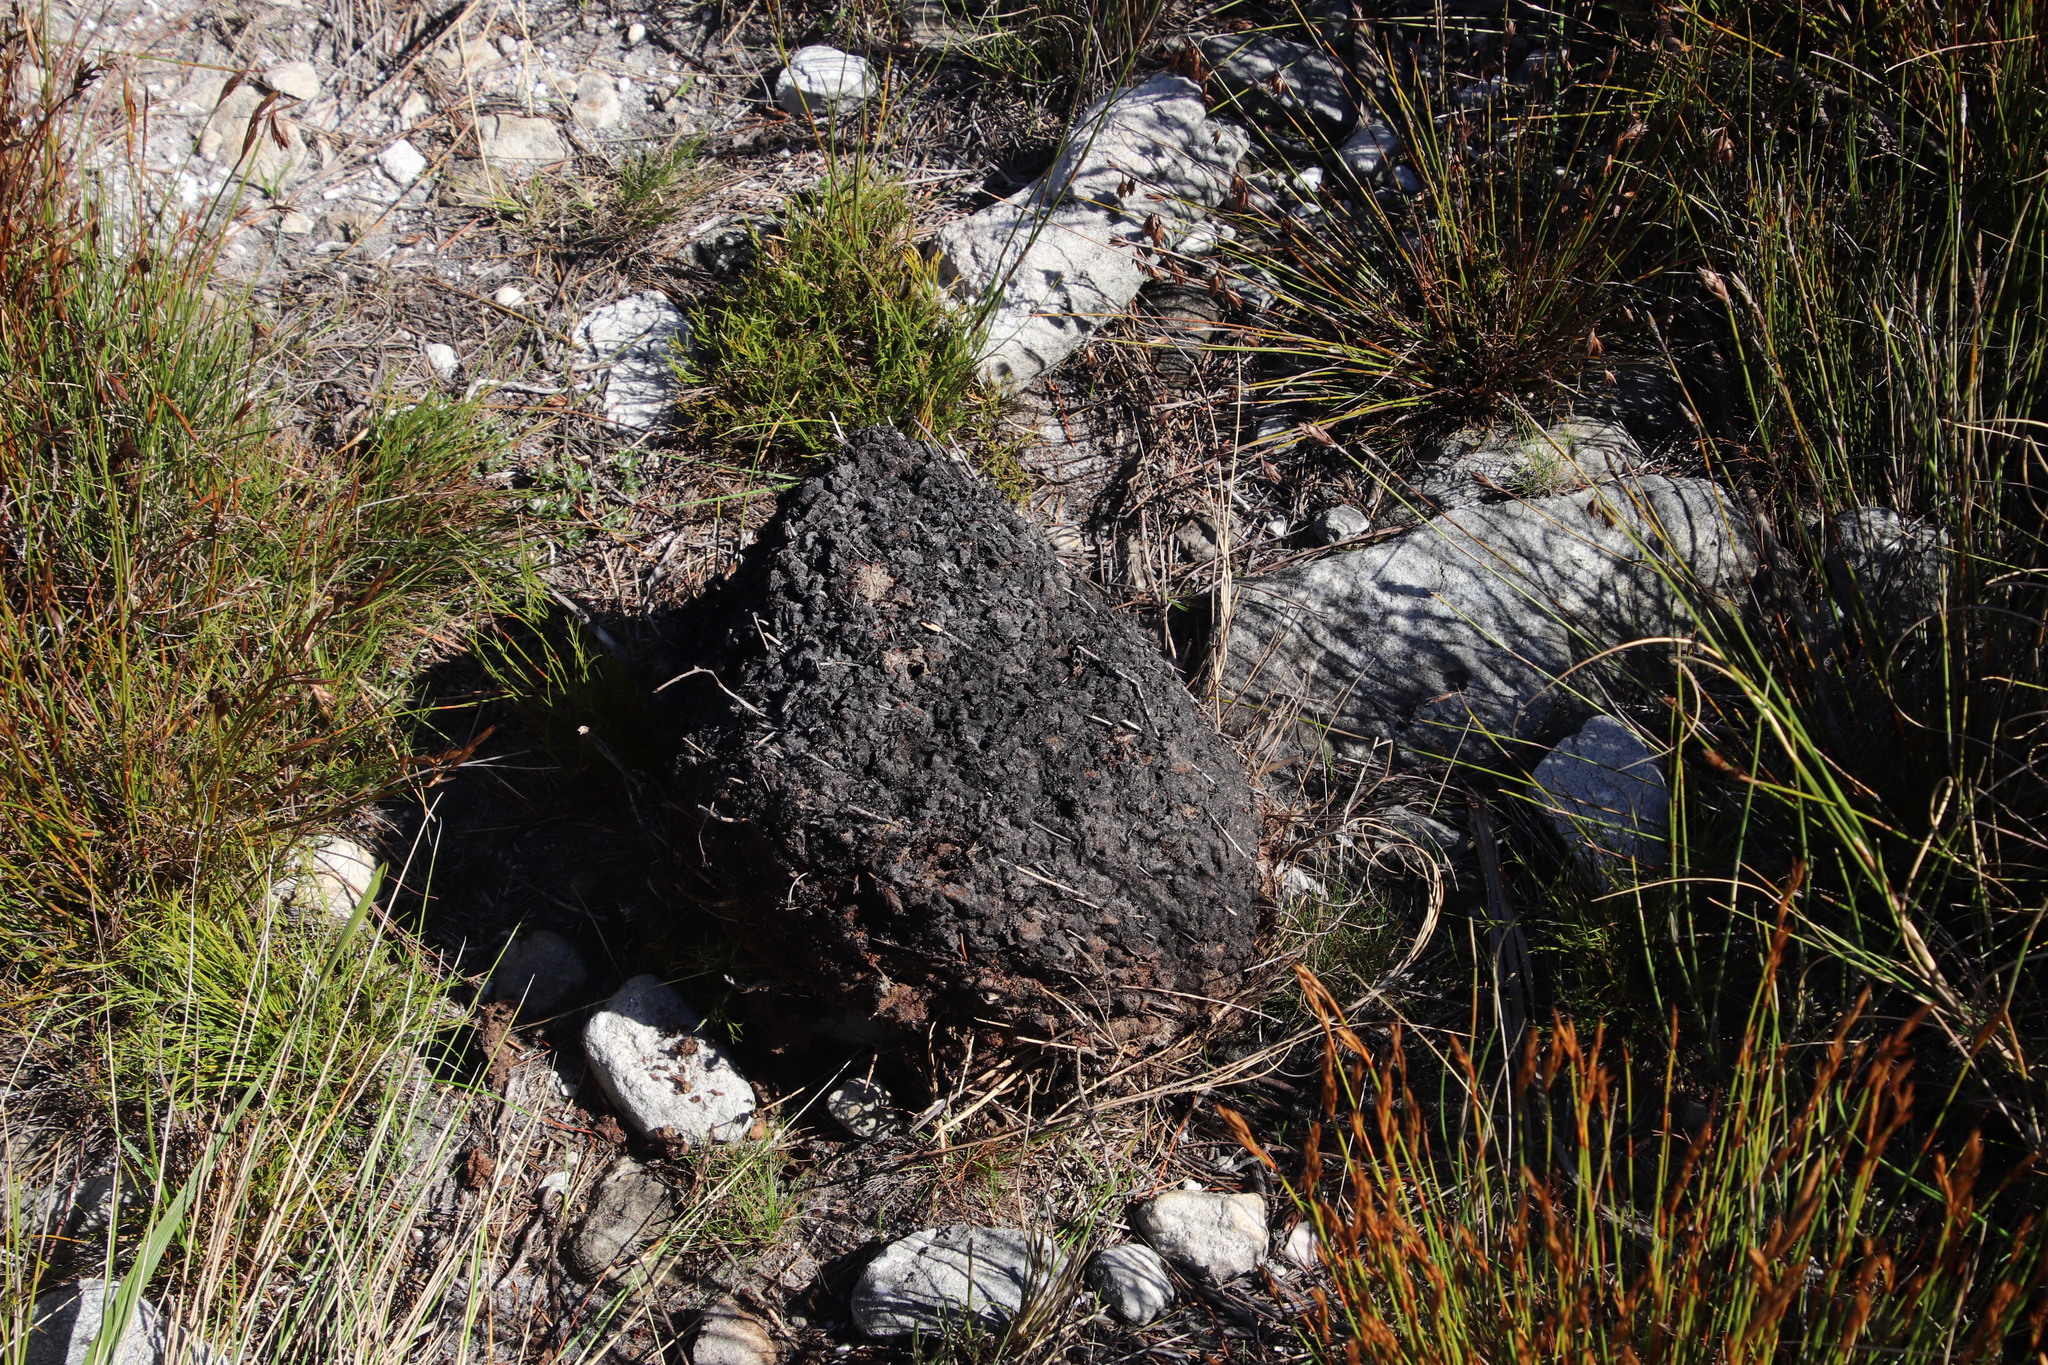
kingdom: Animalia
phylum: Arthropoda
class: Insecta
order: Hymenoptera
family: Formicidae
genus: Crematogaster
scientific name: Crematogaster peringueyi
